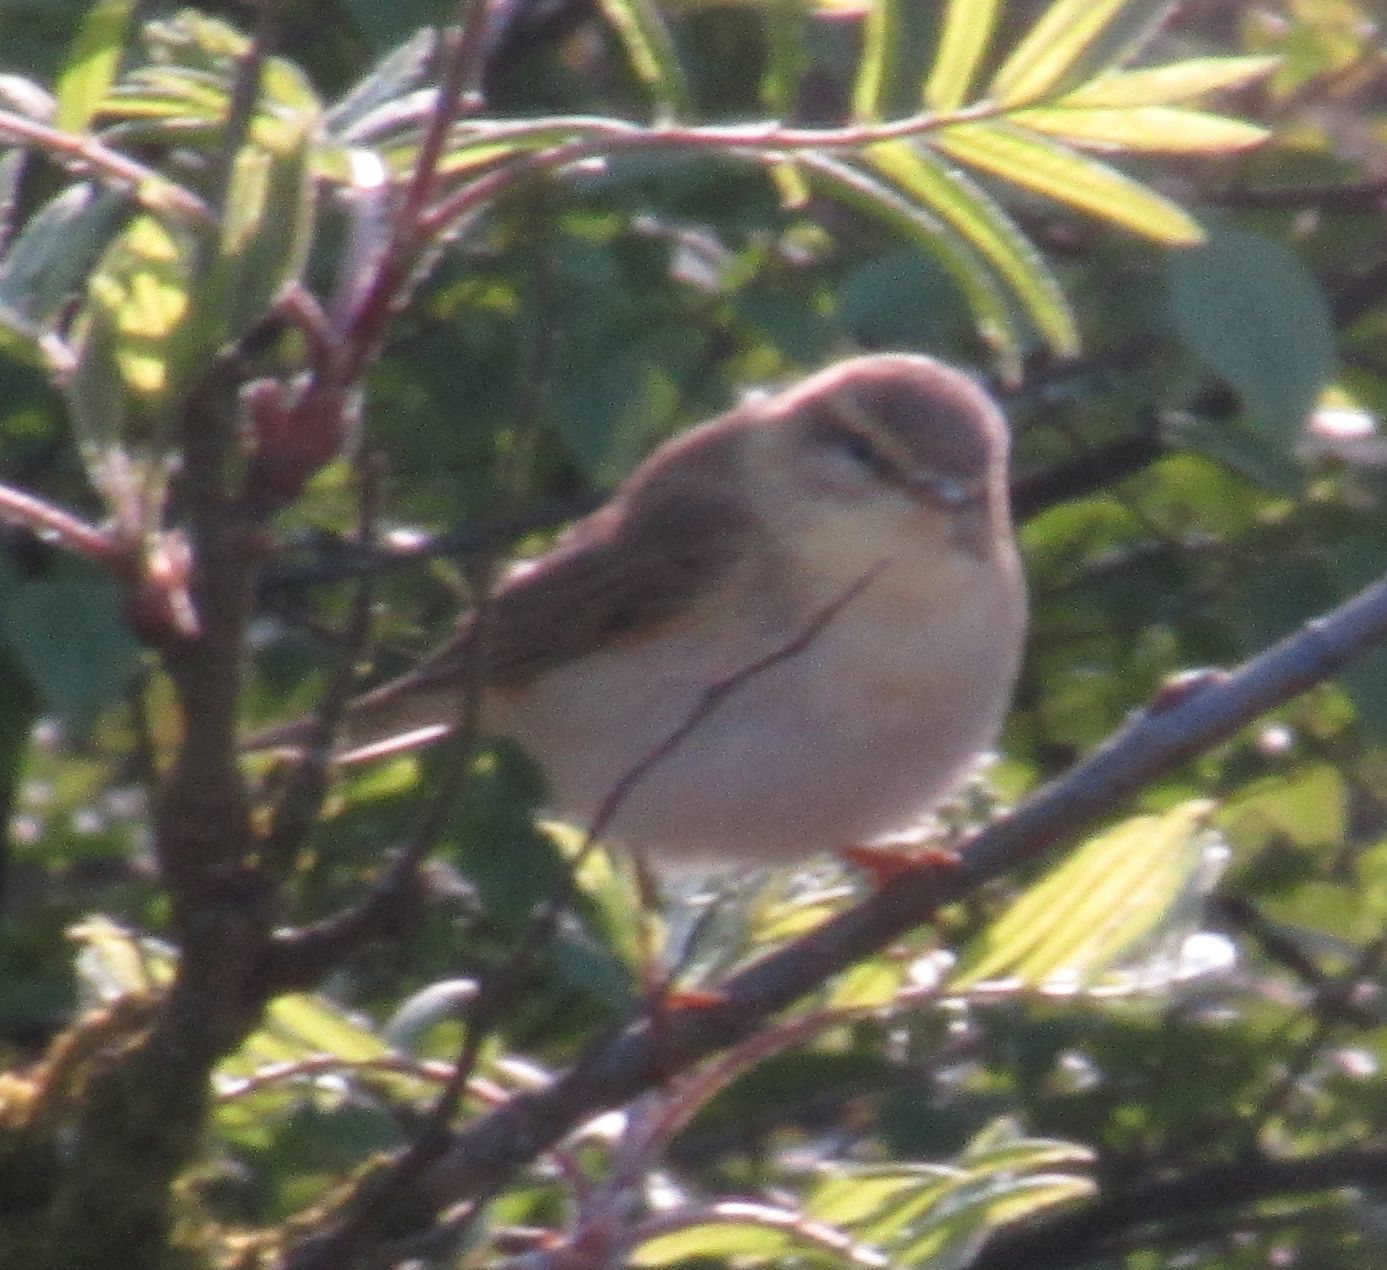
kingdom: Animalia
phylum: Chordata
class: Aves
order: Passeriformes
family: Phylloscopidae
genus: Phylloscopus
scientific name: Phylloscopus trochilus
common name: Willow warbler
